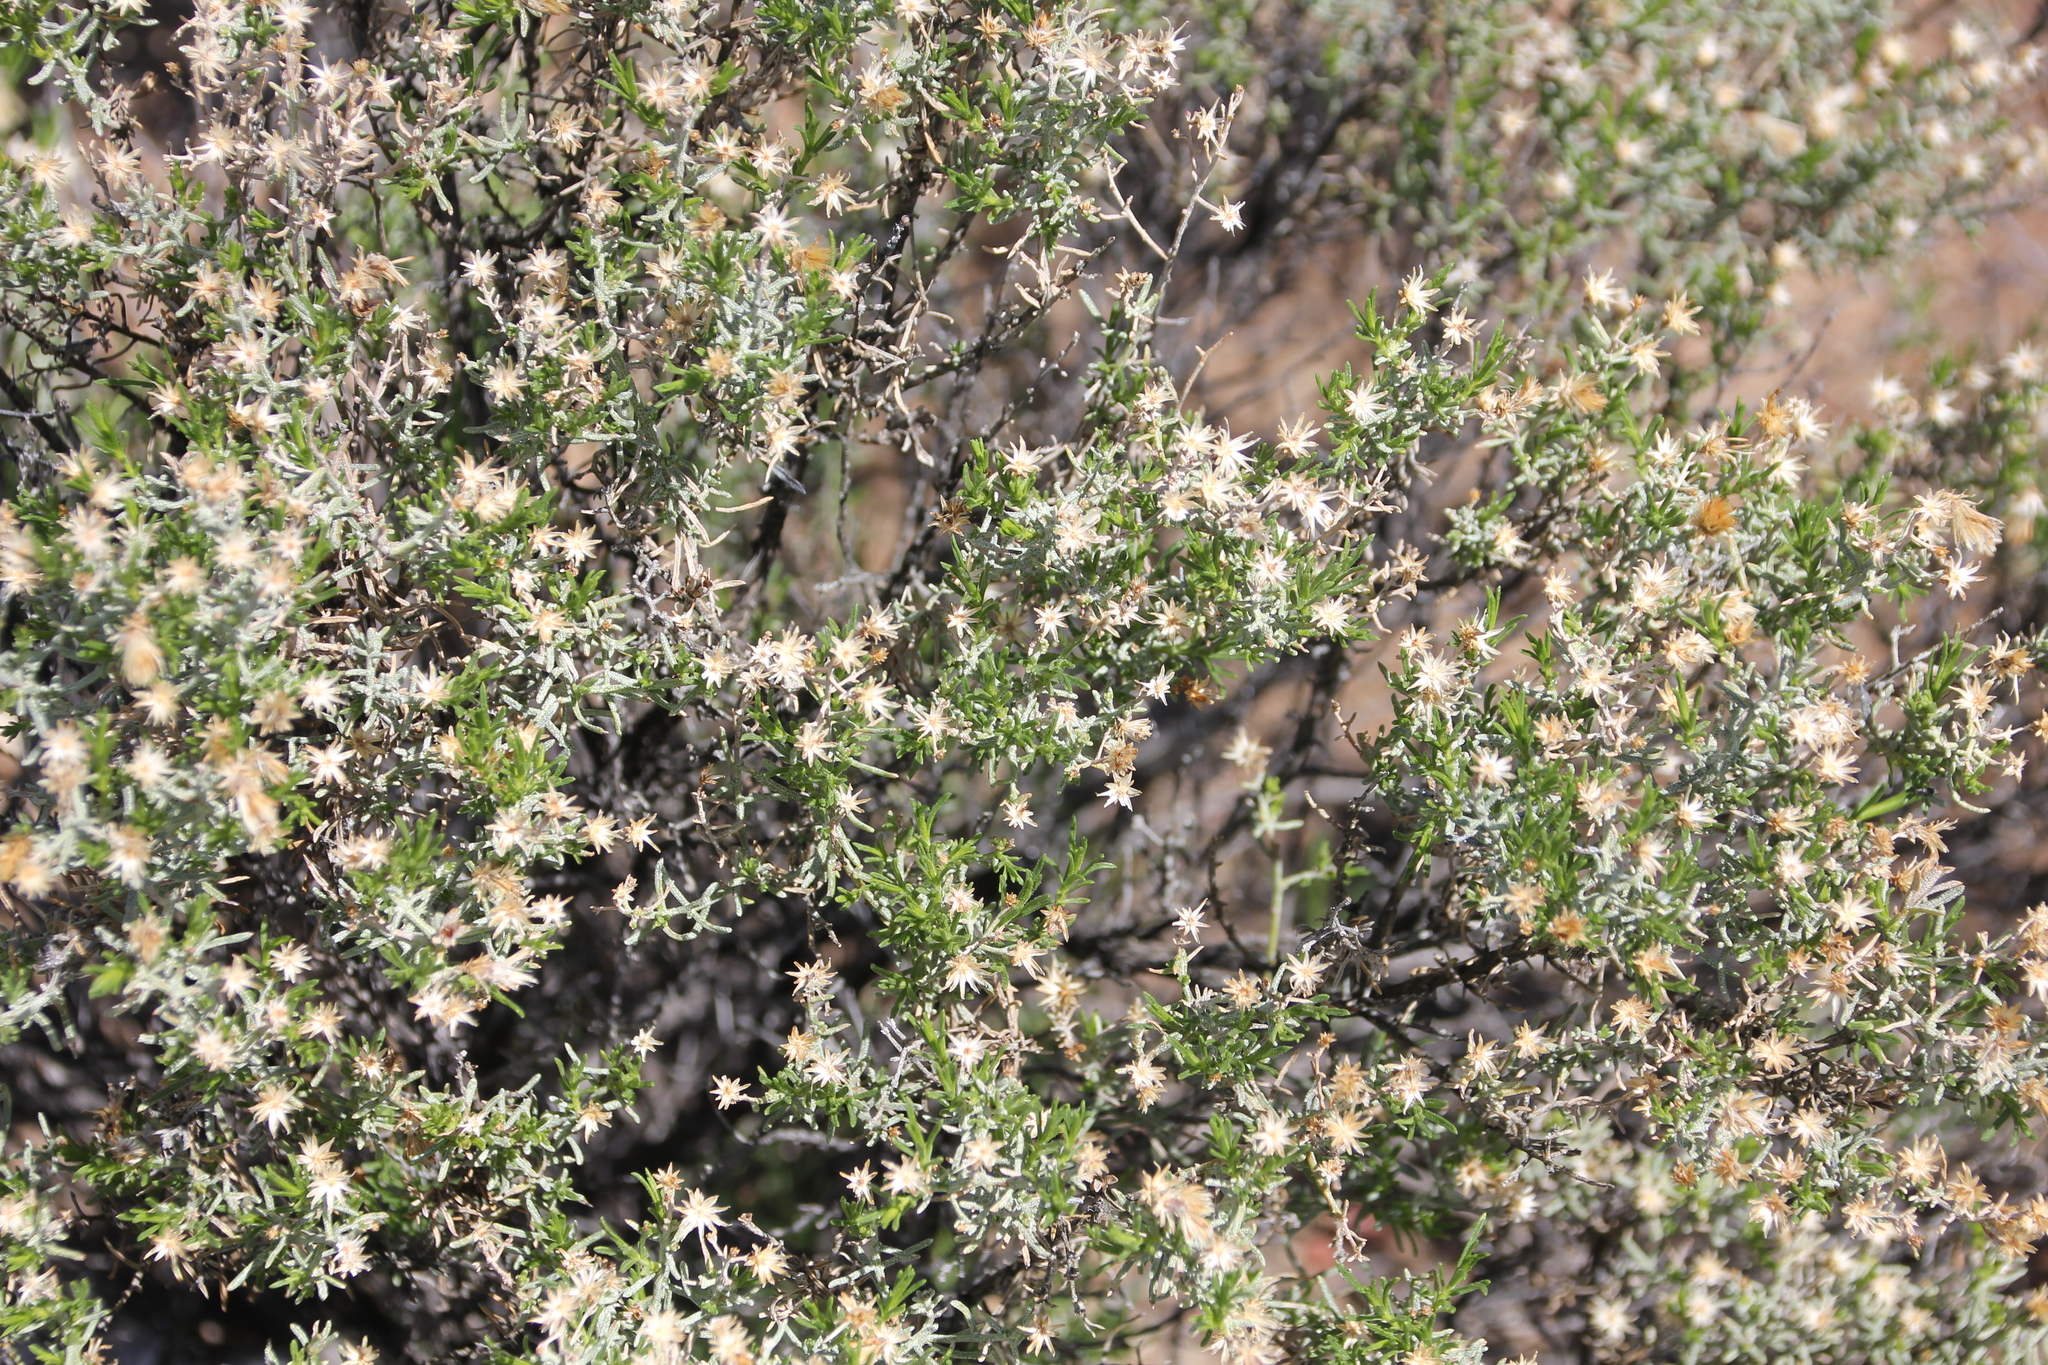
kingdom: Plantae
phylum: Tracheophyta
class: Magnoliopsida
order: Asterales
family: Asteraceae
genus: Ericameria
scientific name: Ericameria brachylepis
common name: Boundary goldenbush
